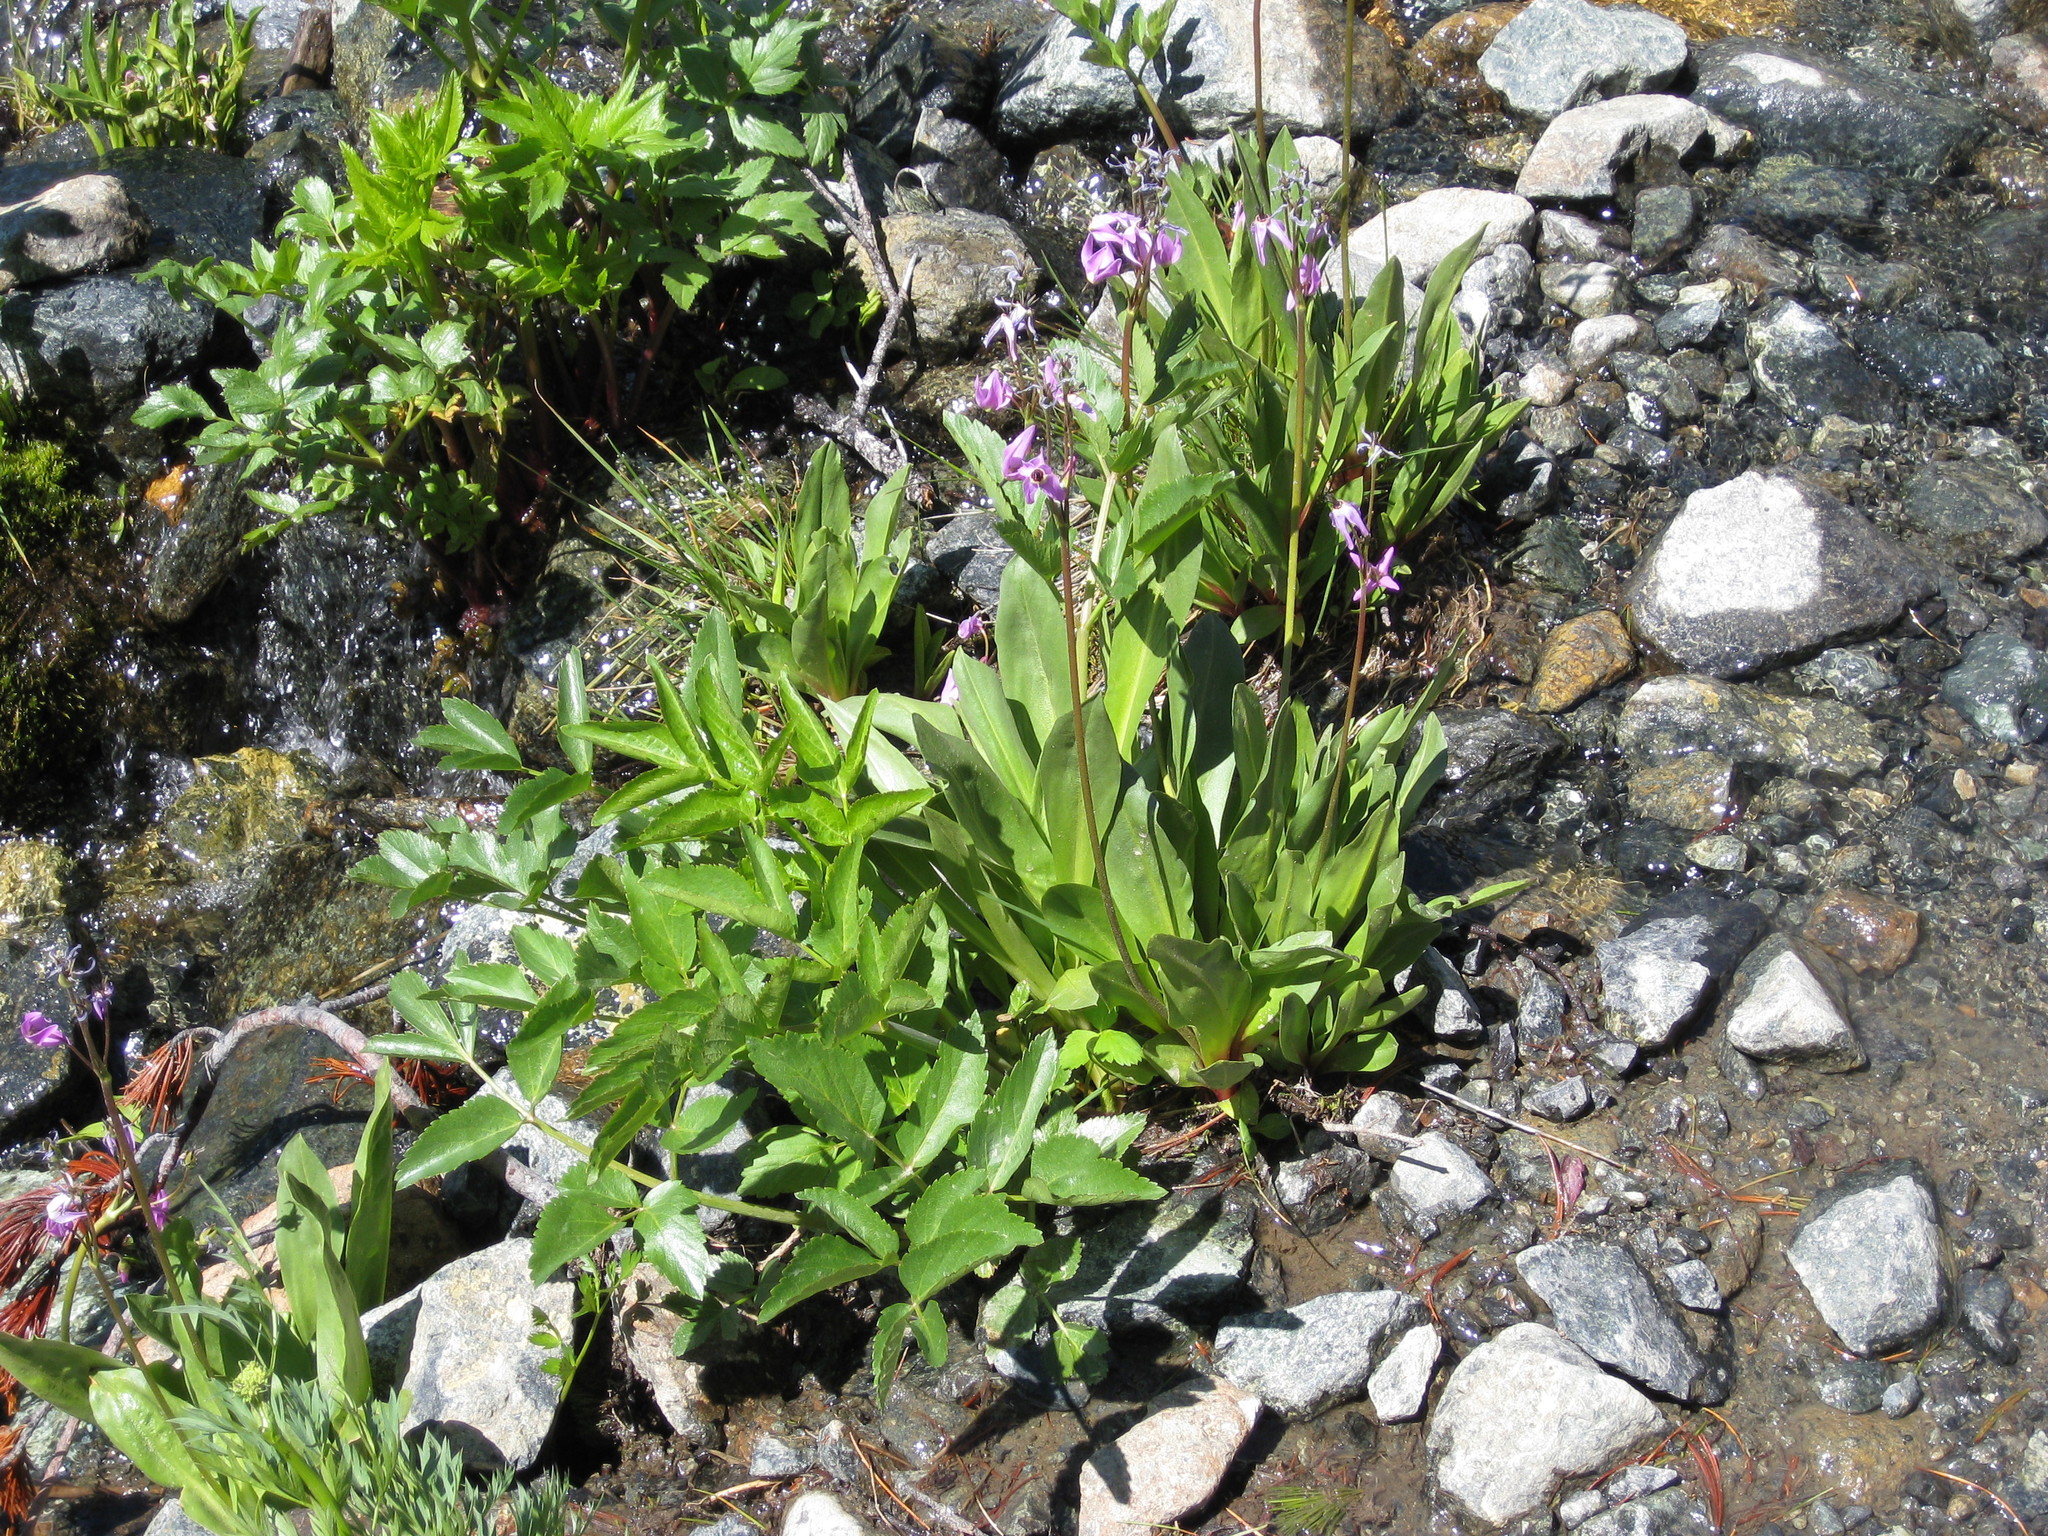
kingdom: Plantae
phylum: Tracheophyta
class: Magnoliopsida
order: Ericales
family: Primulaceae
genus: Dodecatheon
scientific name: Dodecatheon jeffreyanum
